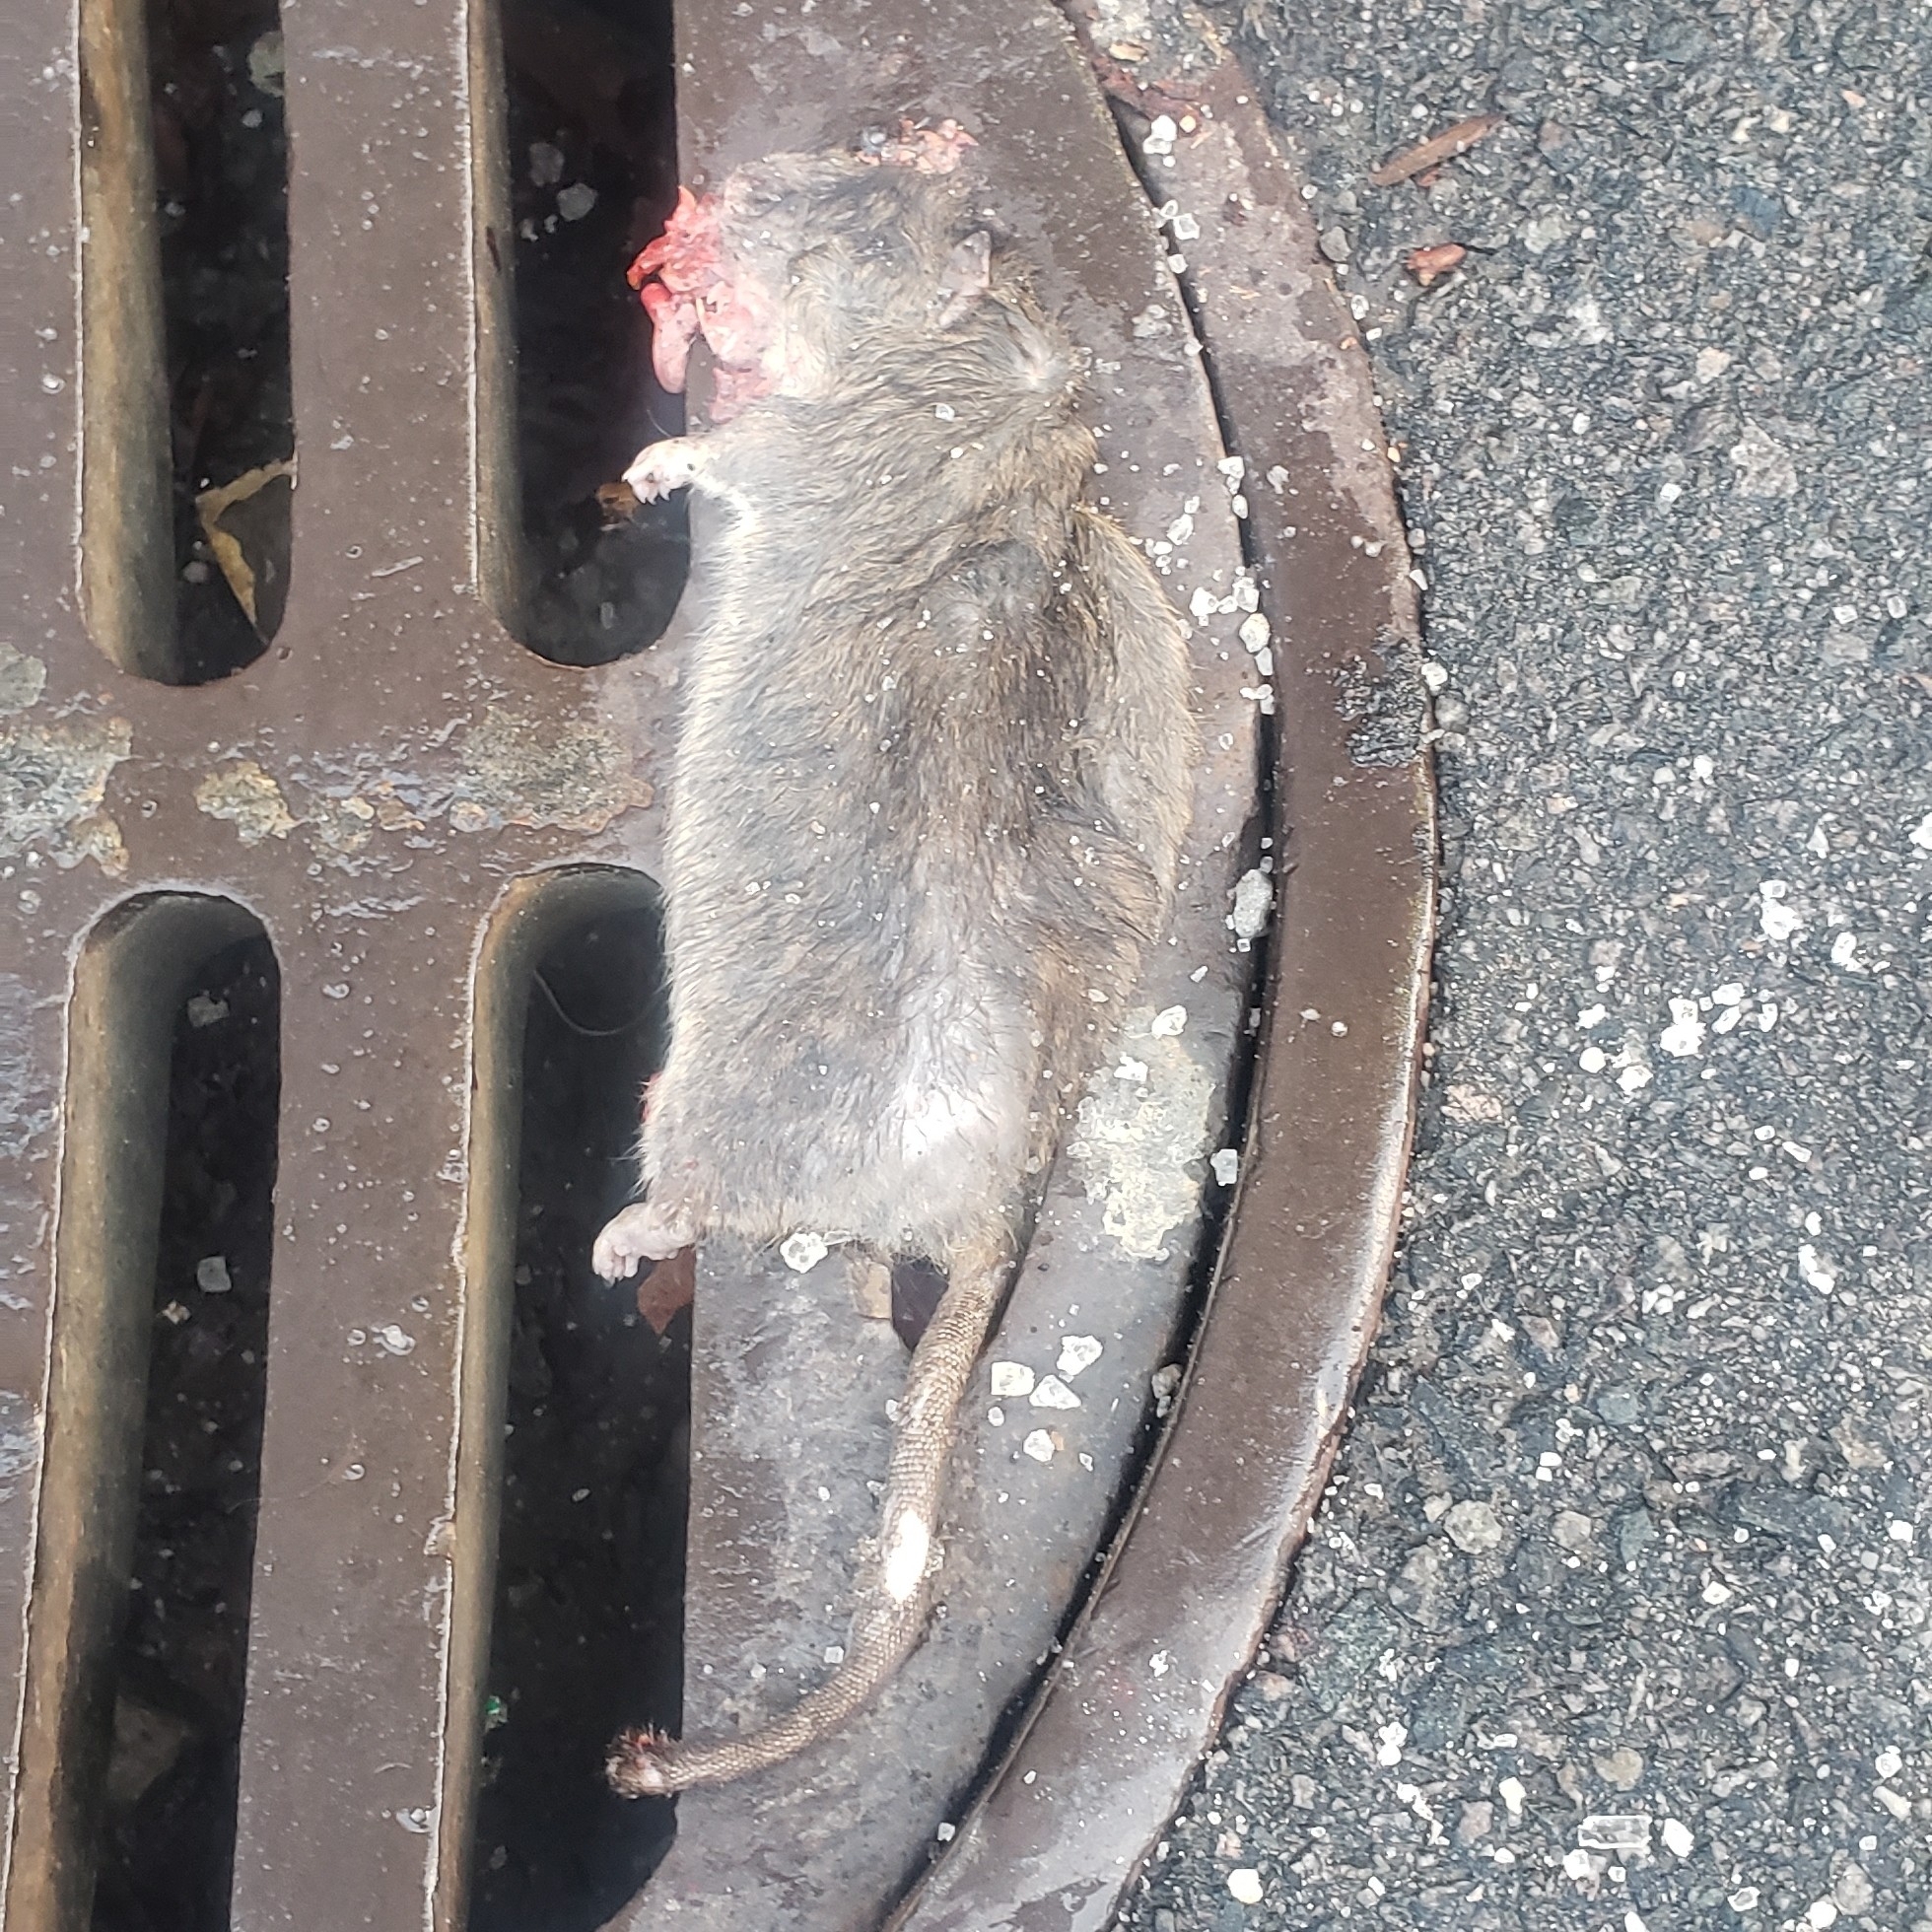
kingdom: Animalia
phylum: Chordata
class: Mammalia
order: Rodentia
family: Muridae
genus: Rattus
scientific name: Rattus norvegicus
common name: Brown rat
